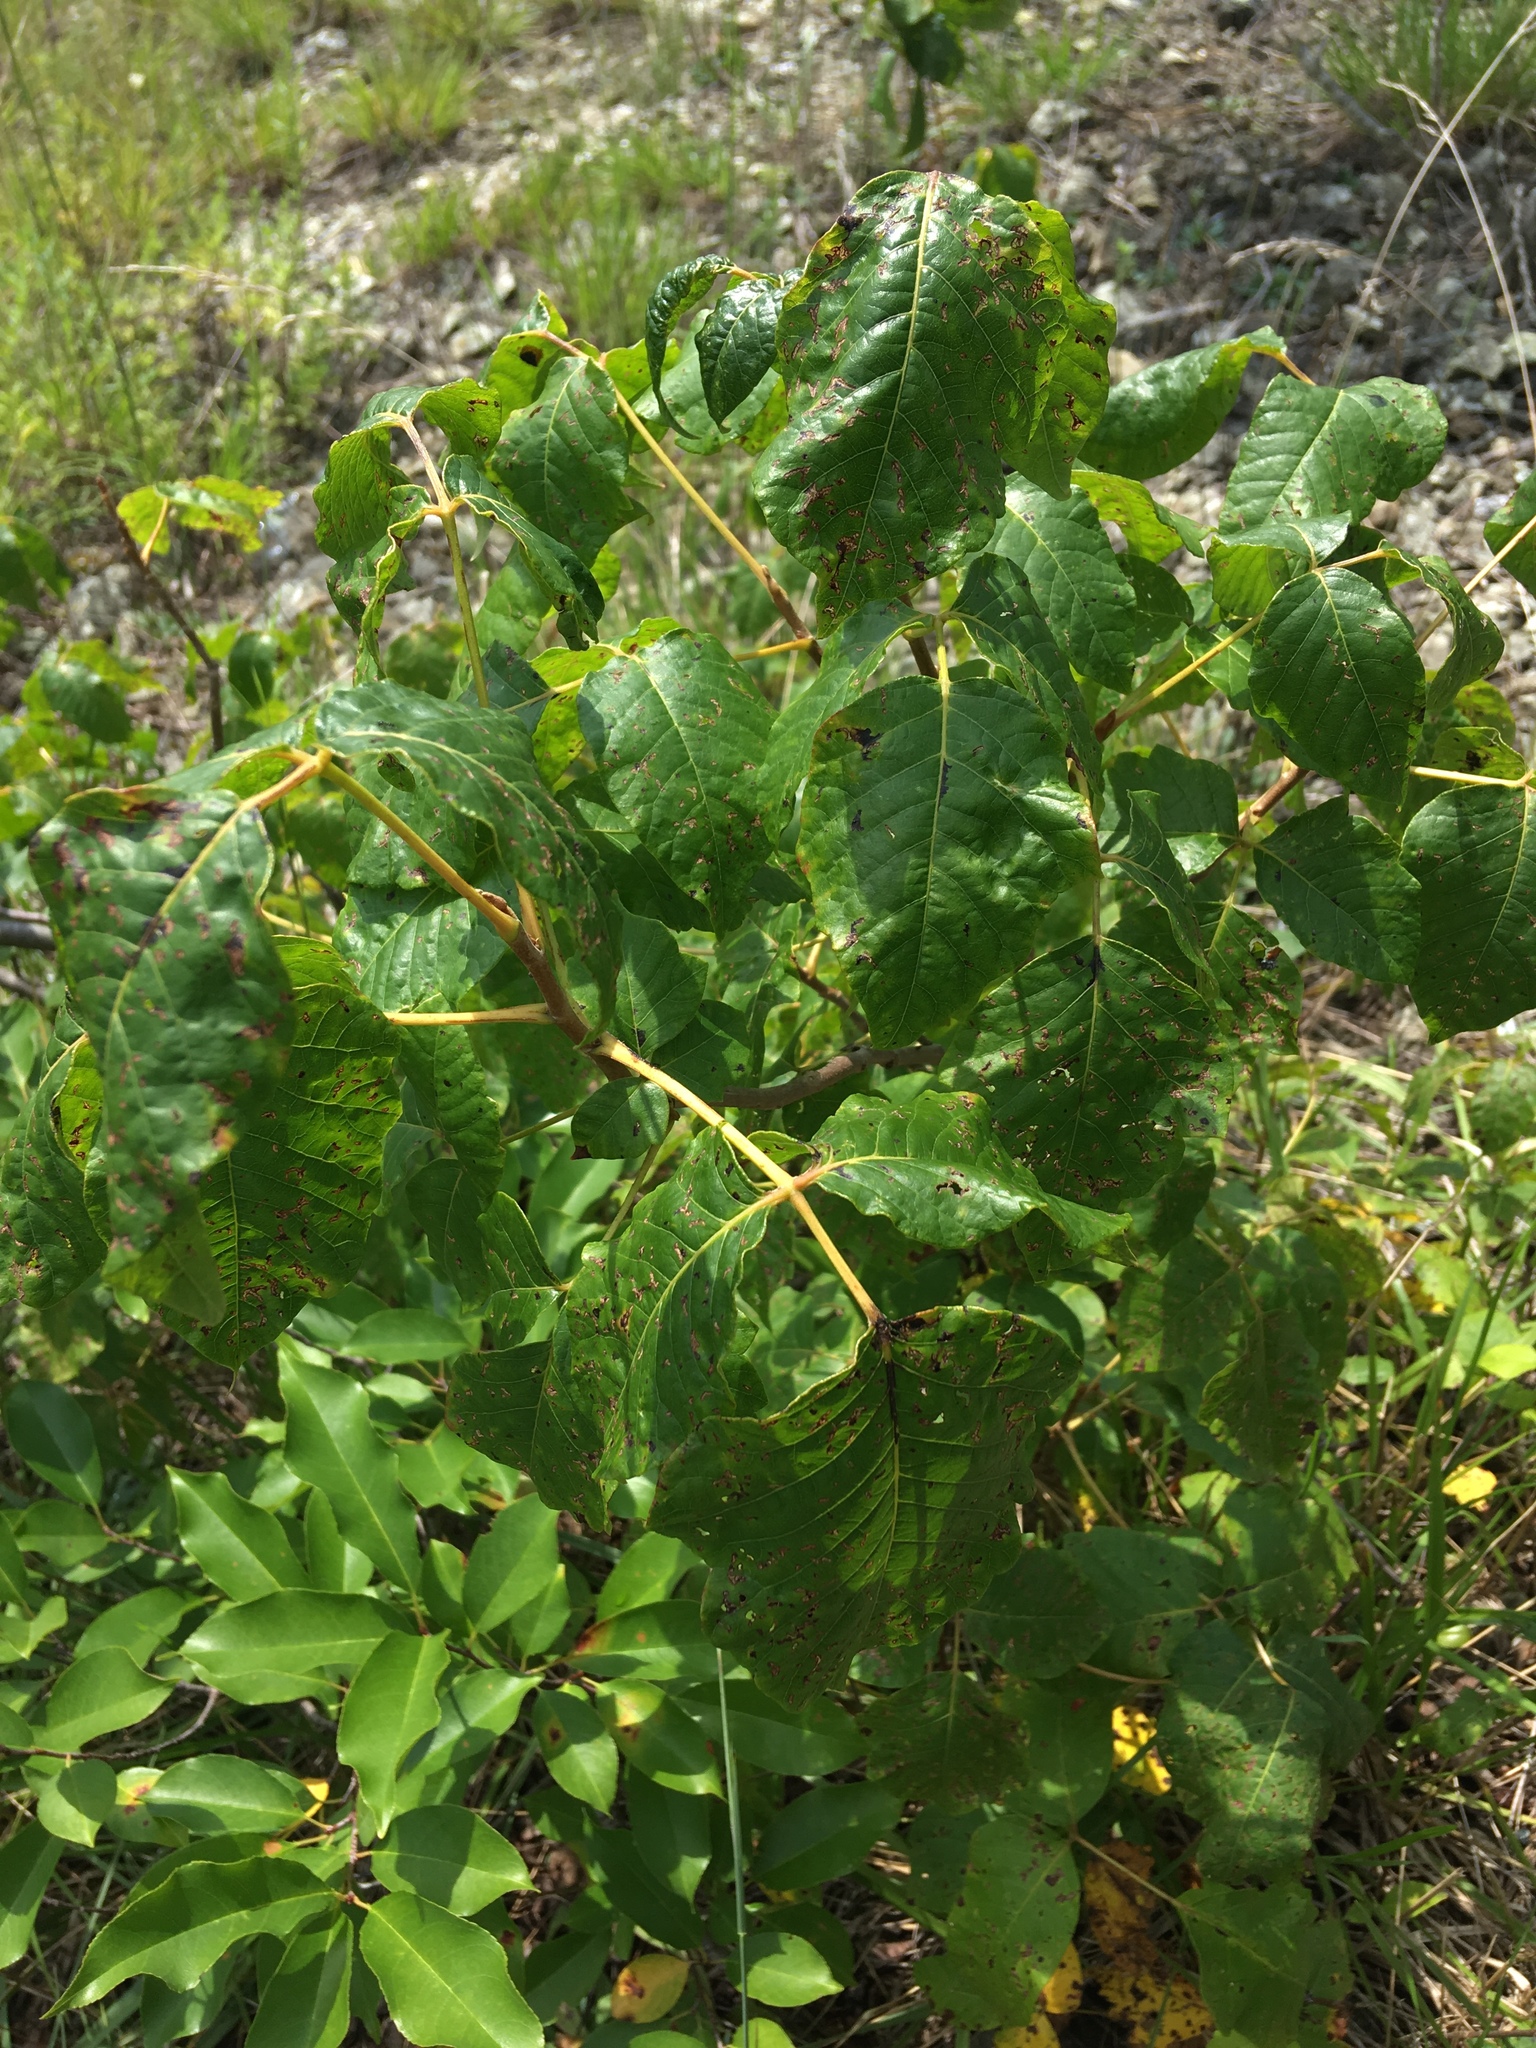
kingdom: Plantae
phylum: Tracheophyta
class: Magnoliopsida
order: Sapindales
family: Anacardiaceae
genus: Toxicodendron
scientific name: Toxicodendron radicans
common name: Poison ivy
